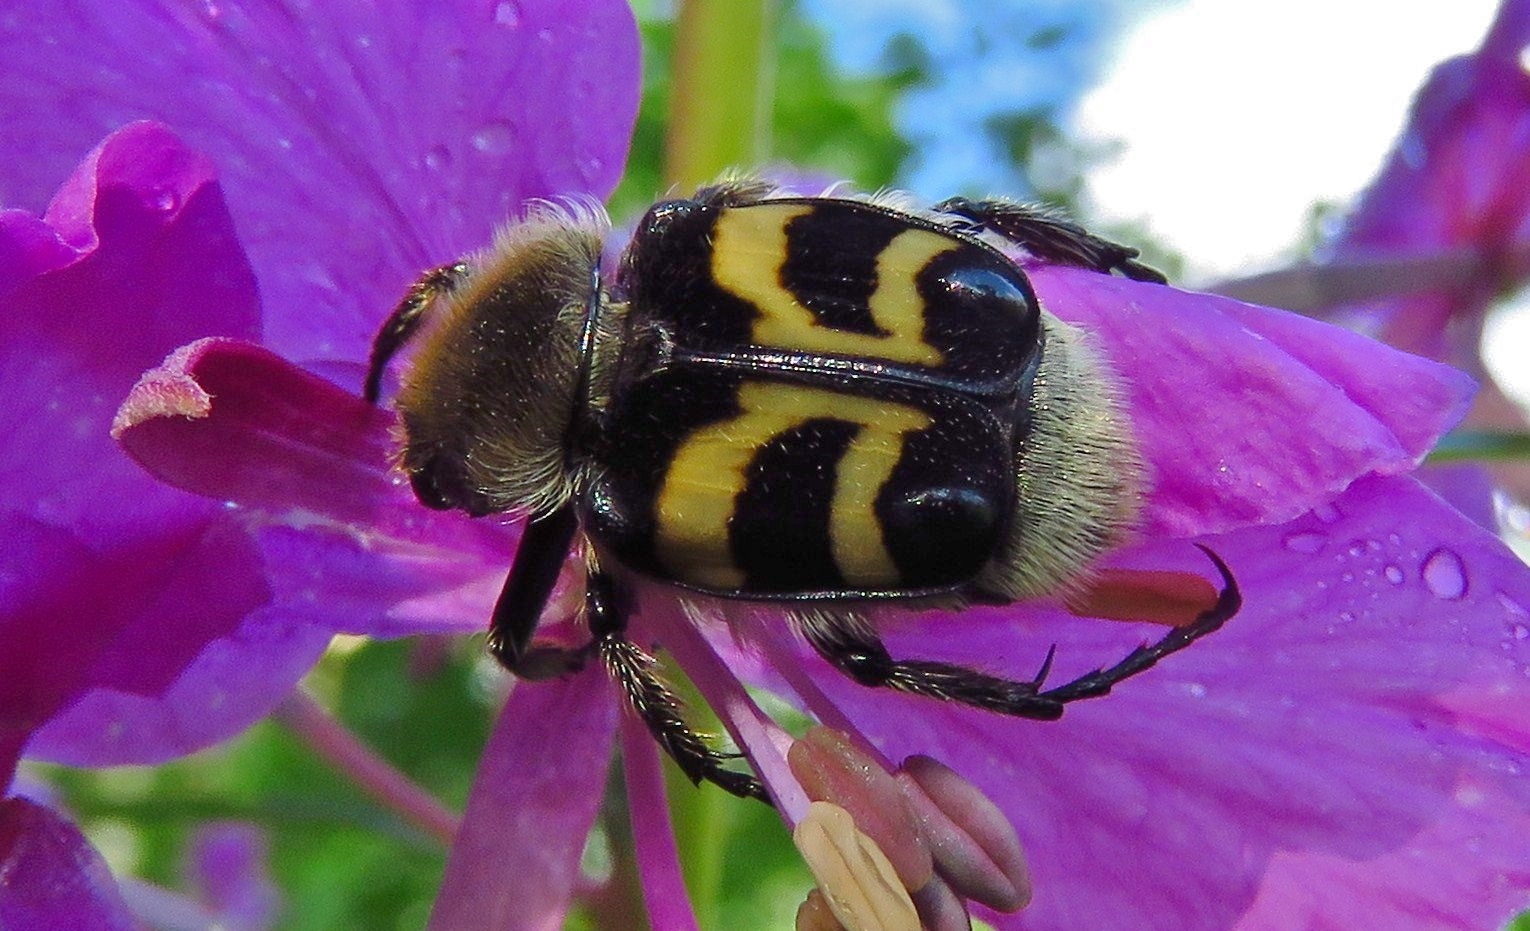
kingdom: Animalia
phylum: Arthropoda
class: Insecta
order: Coleoptera
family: Scarabaeidae
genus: Trichius
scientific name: Trichius fasciatus
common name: Bee beetle
